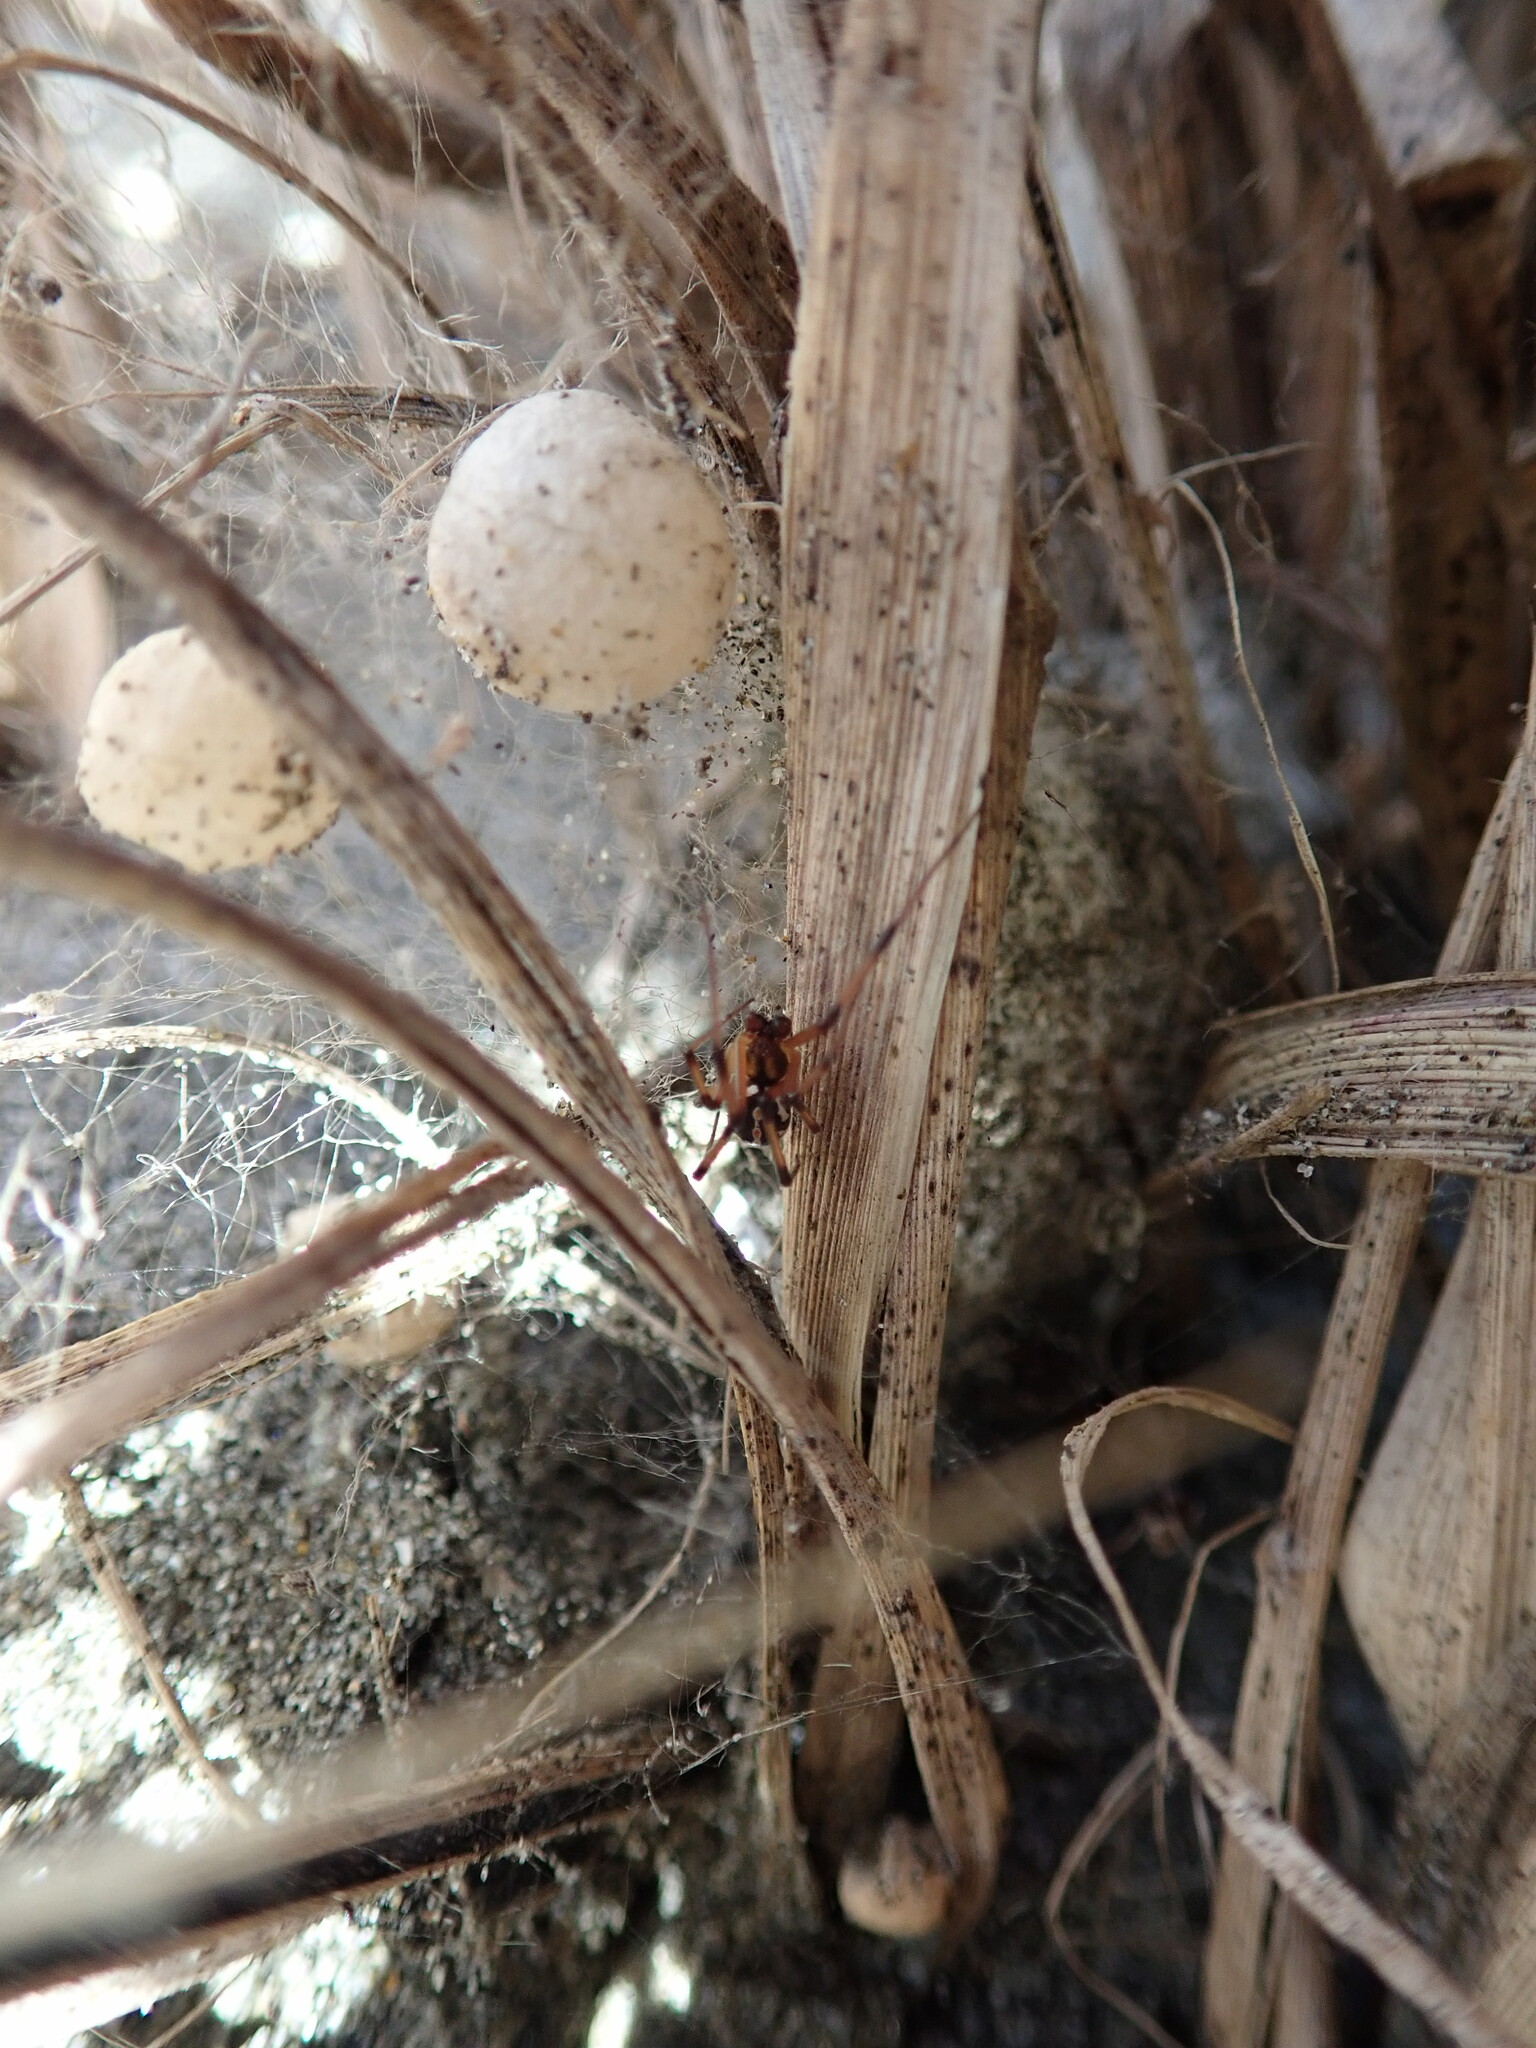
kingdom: Animalia
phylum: Arthropoda
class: Arachnida
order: Araneae
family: Theridiidae
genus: Latrodectus
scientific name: Latrodectus katipo
